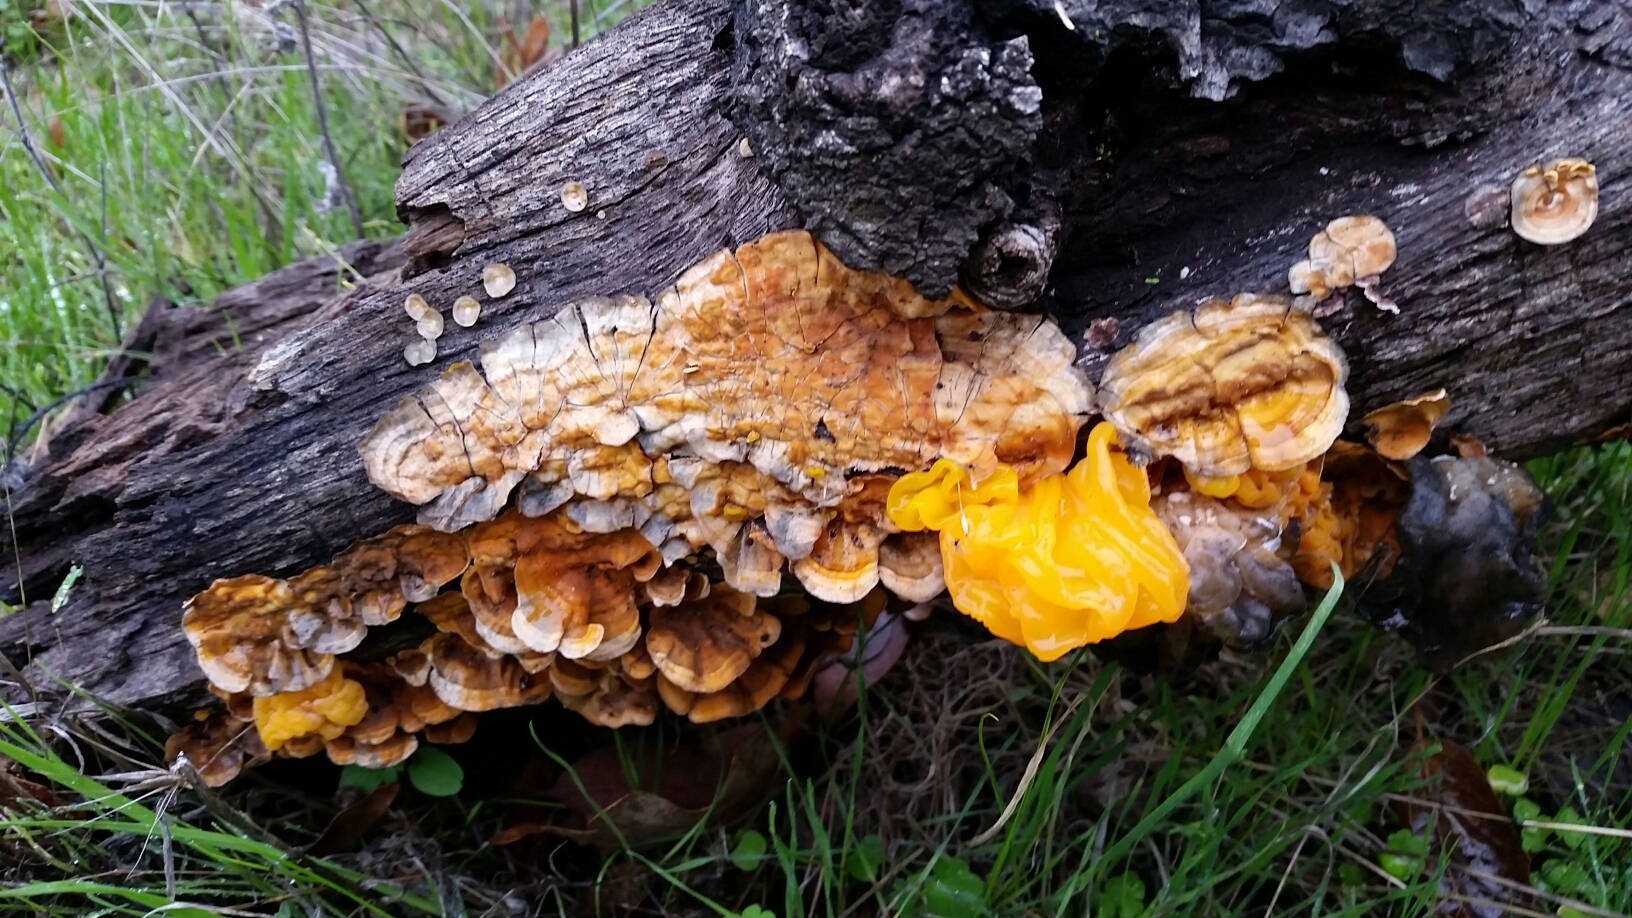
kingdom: Fungi
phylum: Basidiomycota
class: Tremellomycetes
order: Tremellales
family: Naemateliaceae
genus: Naematelia
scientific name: Naematelia aurantia
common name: Golden ear
